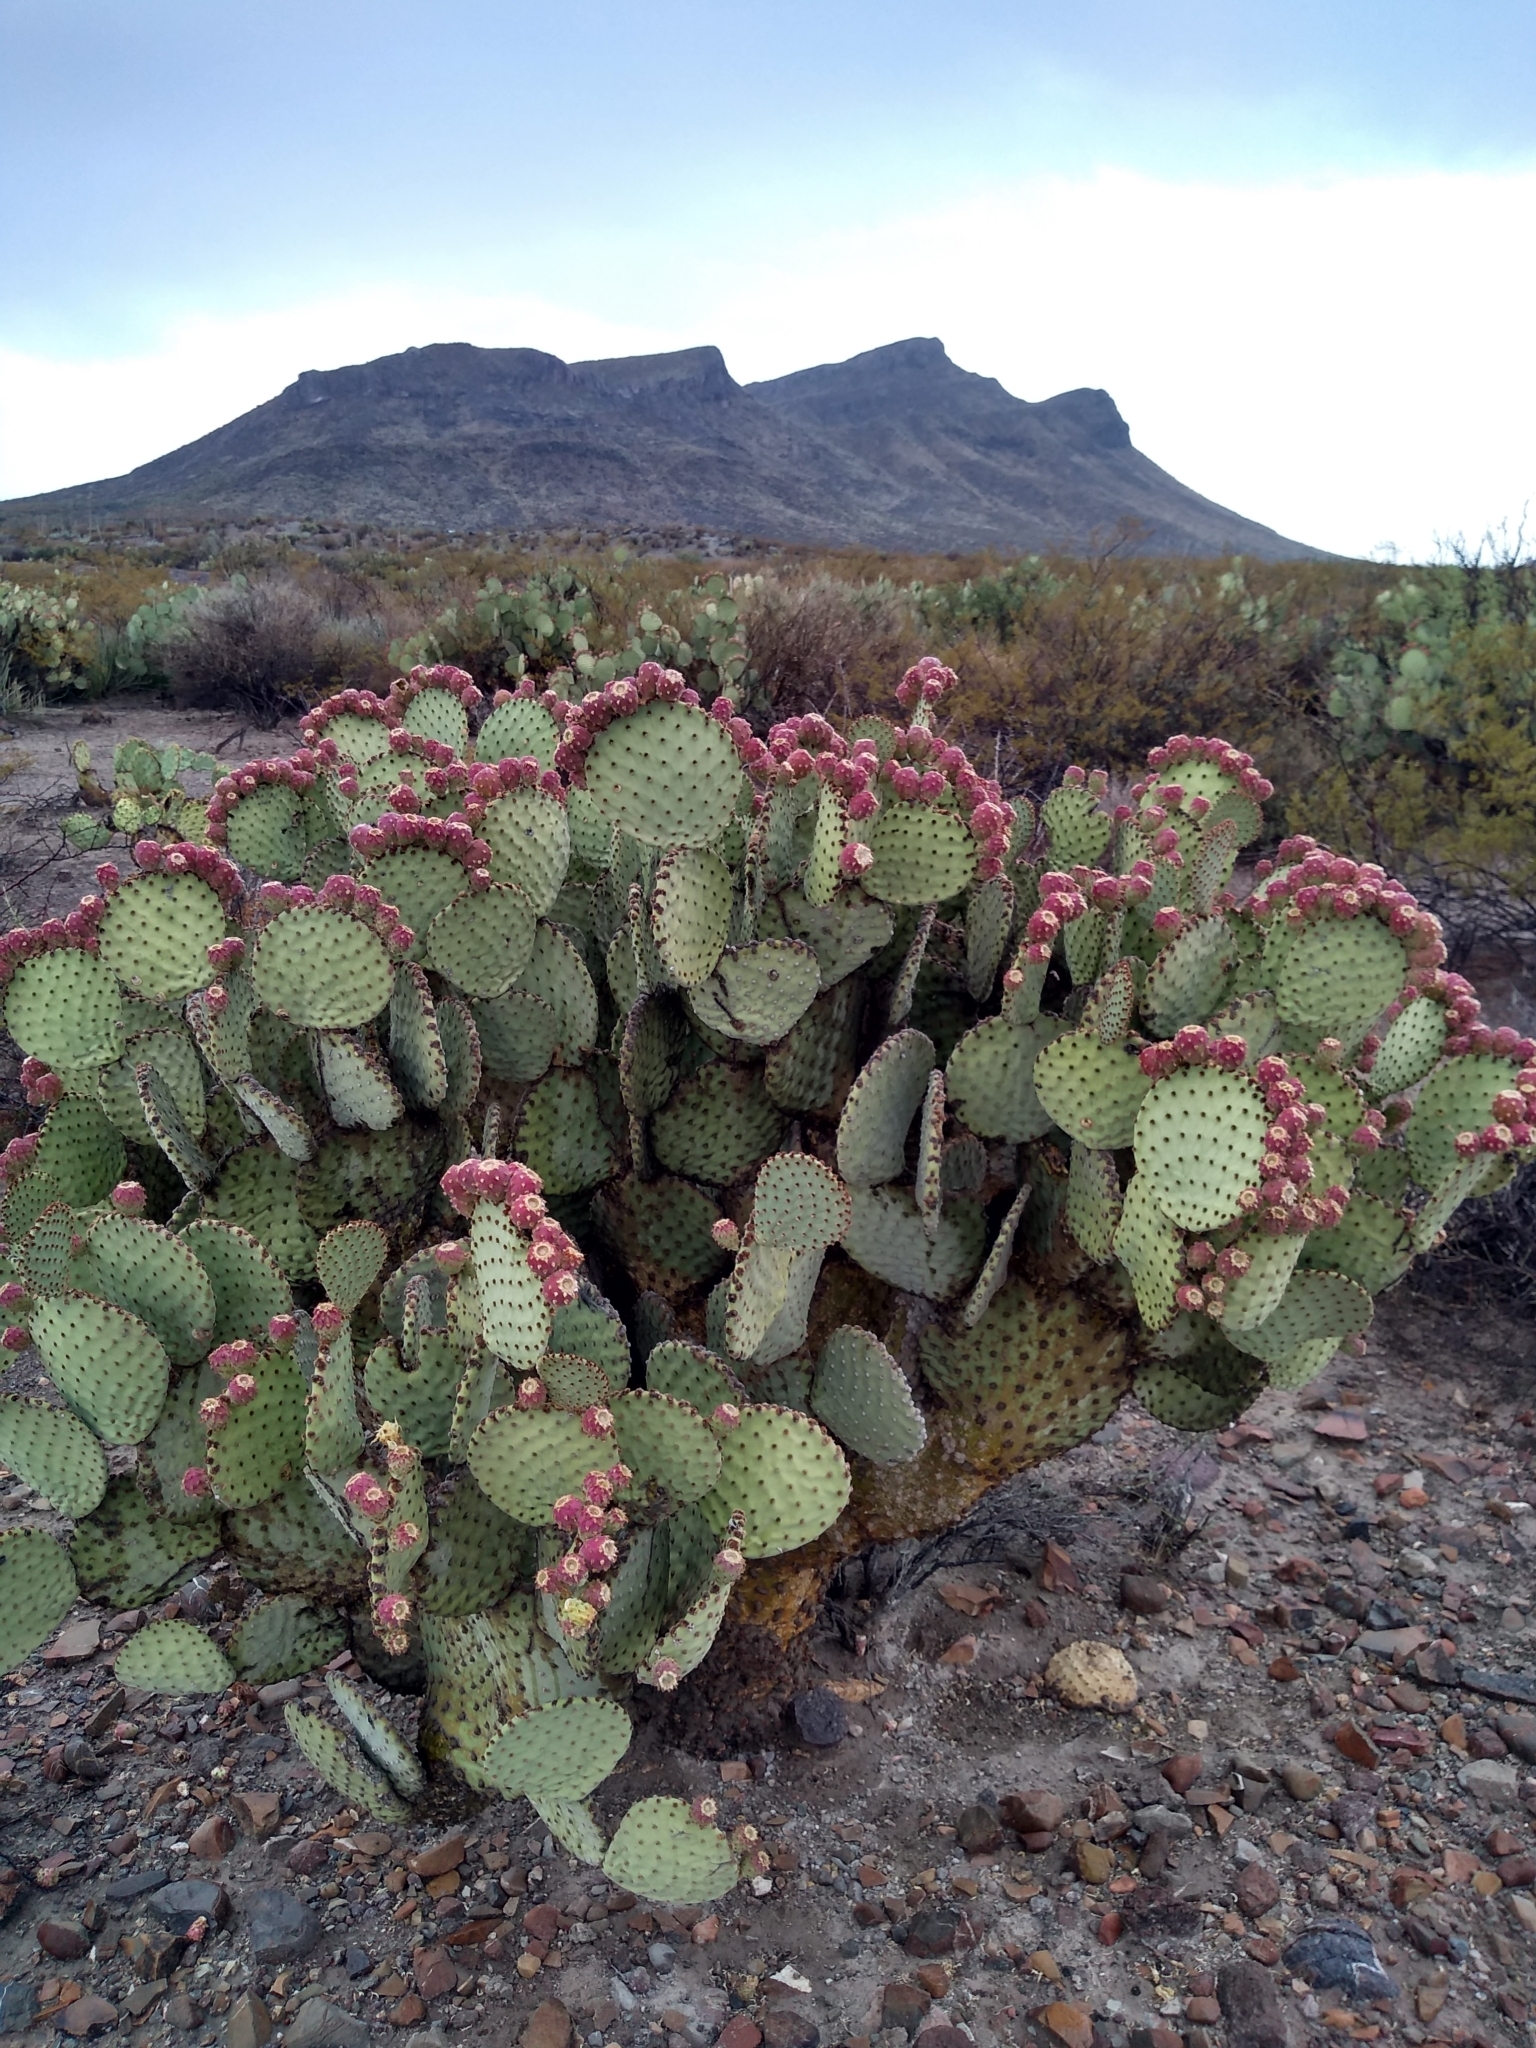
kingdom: Plantae
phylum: Tracheophyta
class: Magnoliopsida
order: Caryophyllales
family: Cactaceae
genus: Opuntia
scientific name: Opuntia rufida
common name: Blind pricklypear
